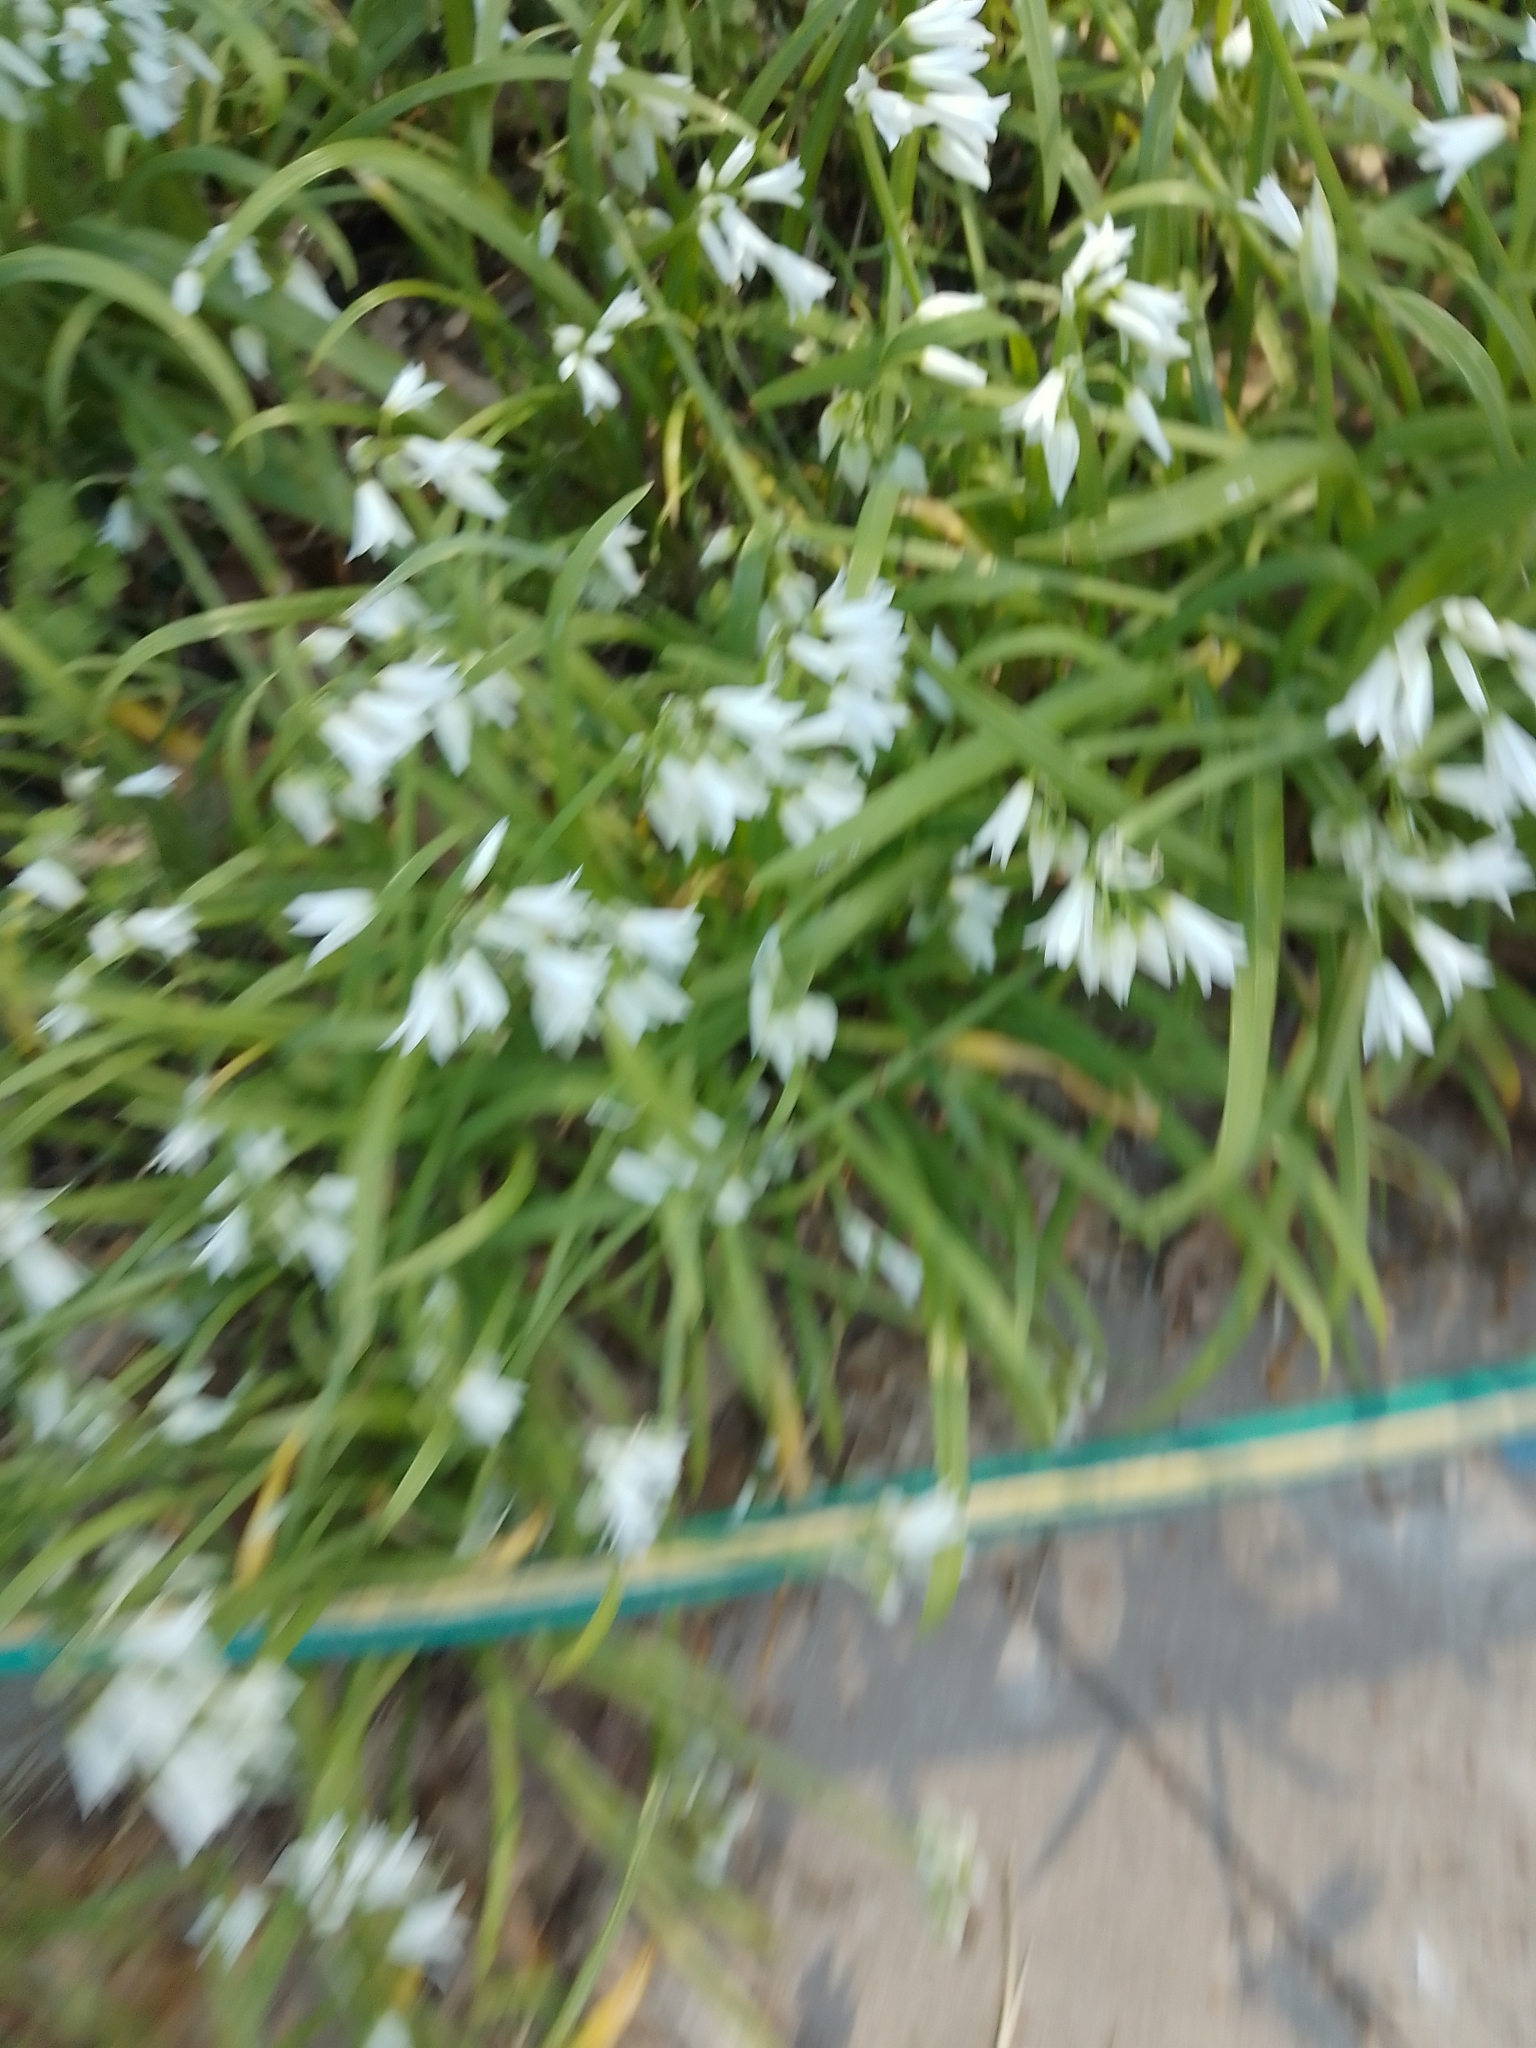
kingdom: Plantae
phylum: Tracheophyta
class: Liliopsida
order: Asparagales
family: Amaryllidaceae
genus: Allium
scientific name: Allium triquetrum
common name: Three-cornered garlic
